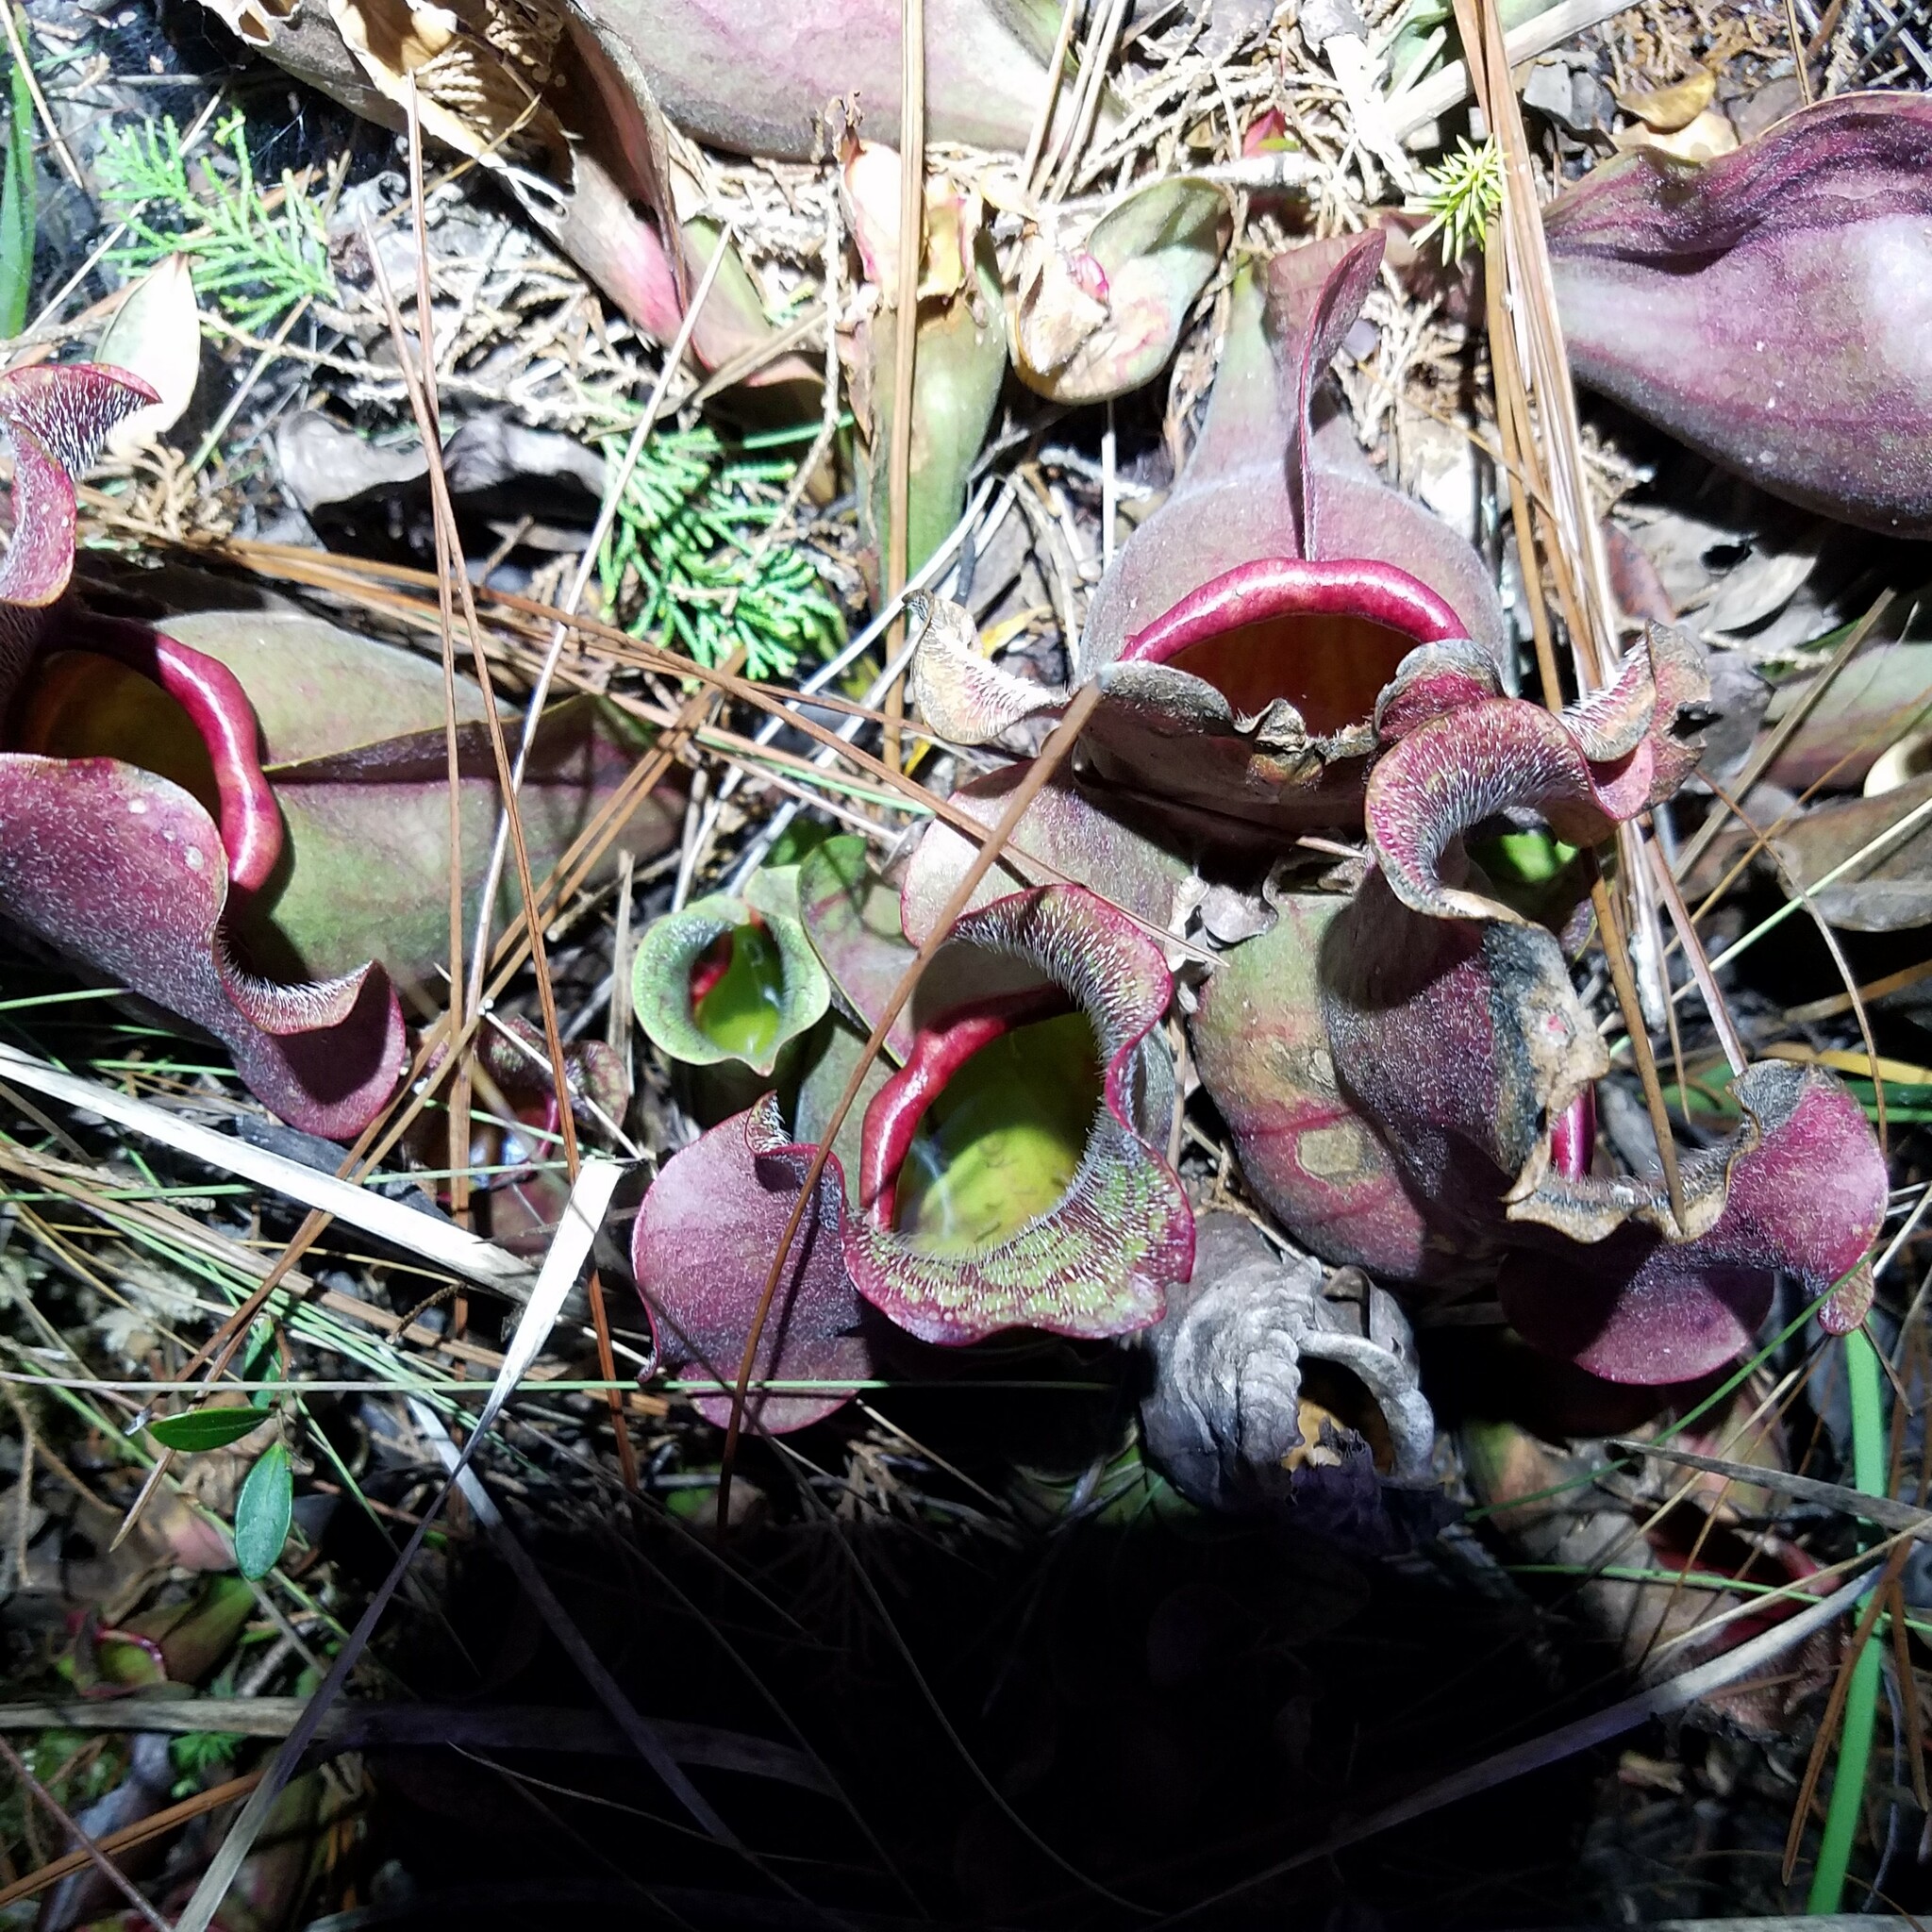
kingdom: Plantae
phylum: Tracheophyta
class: Magnoliopsida
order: Ericales
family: Sarraceniaceae
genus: Sarracenia
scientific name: Sarracenia rosea
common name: Pink pitcherplant
